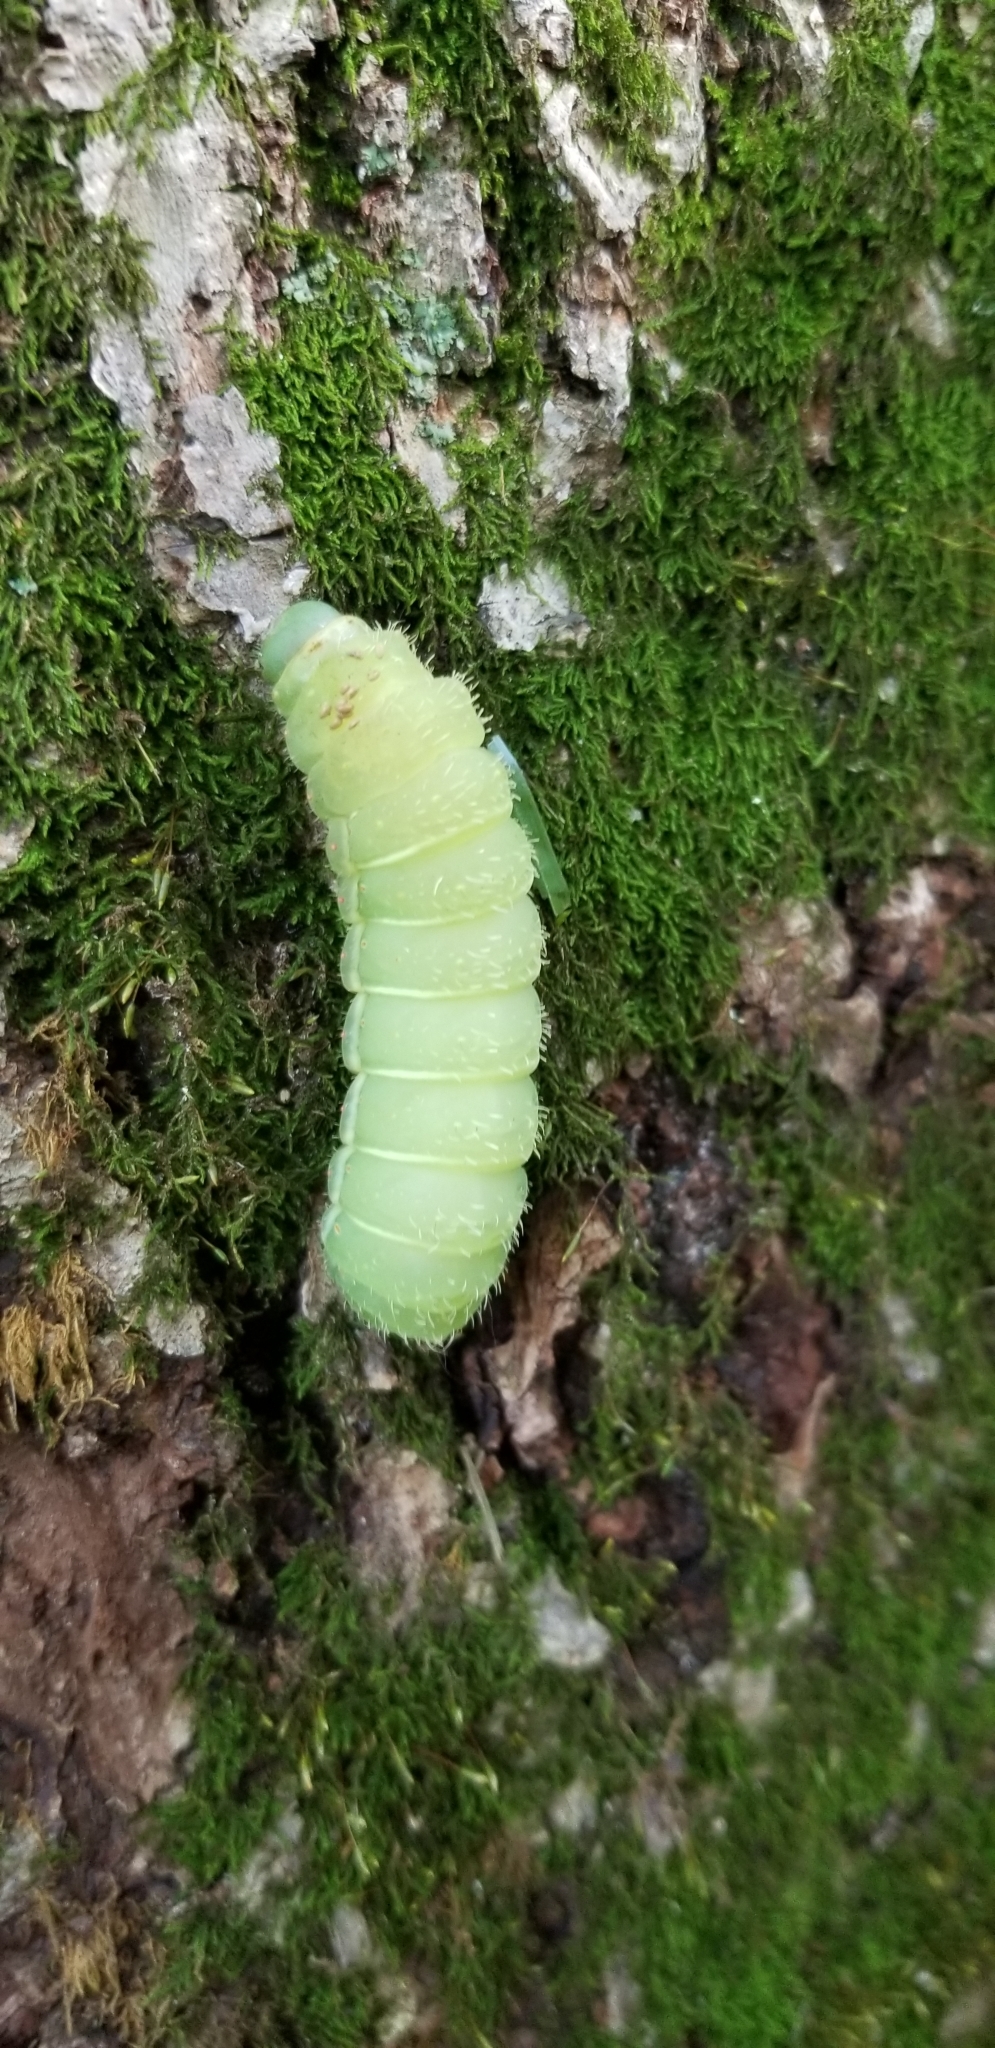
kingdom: Animalia
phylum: Arthropoda
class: Insecta
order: Lepidoptera
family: Saturniidae
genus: Actias
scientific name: Actias luna
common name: Luna moth
